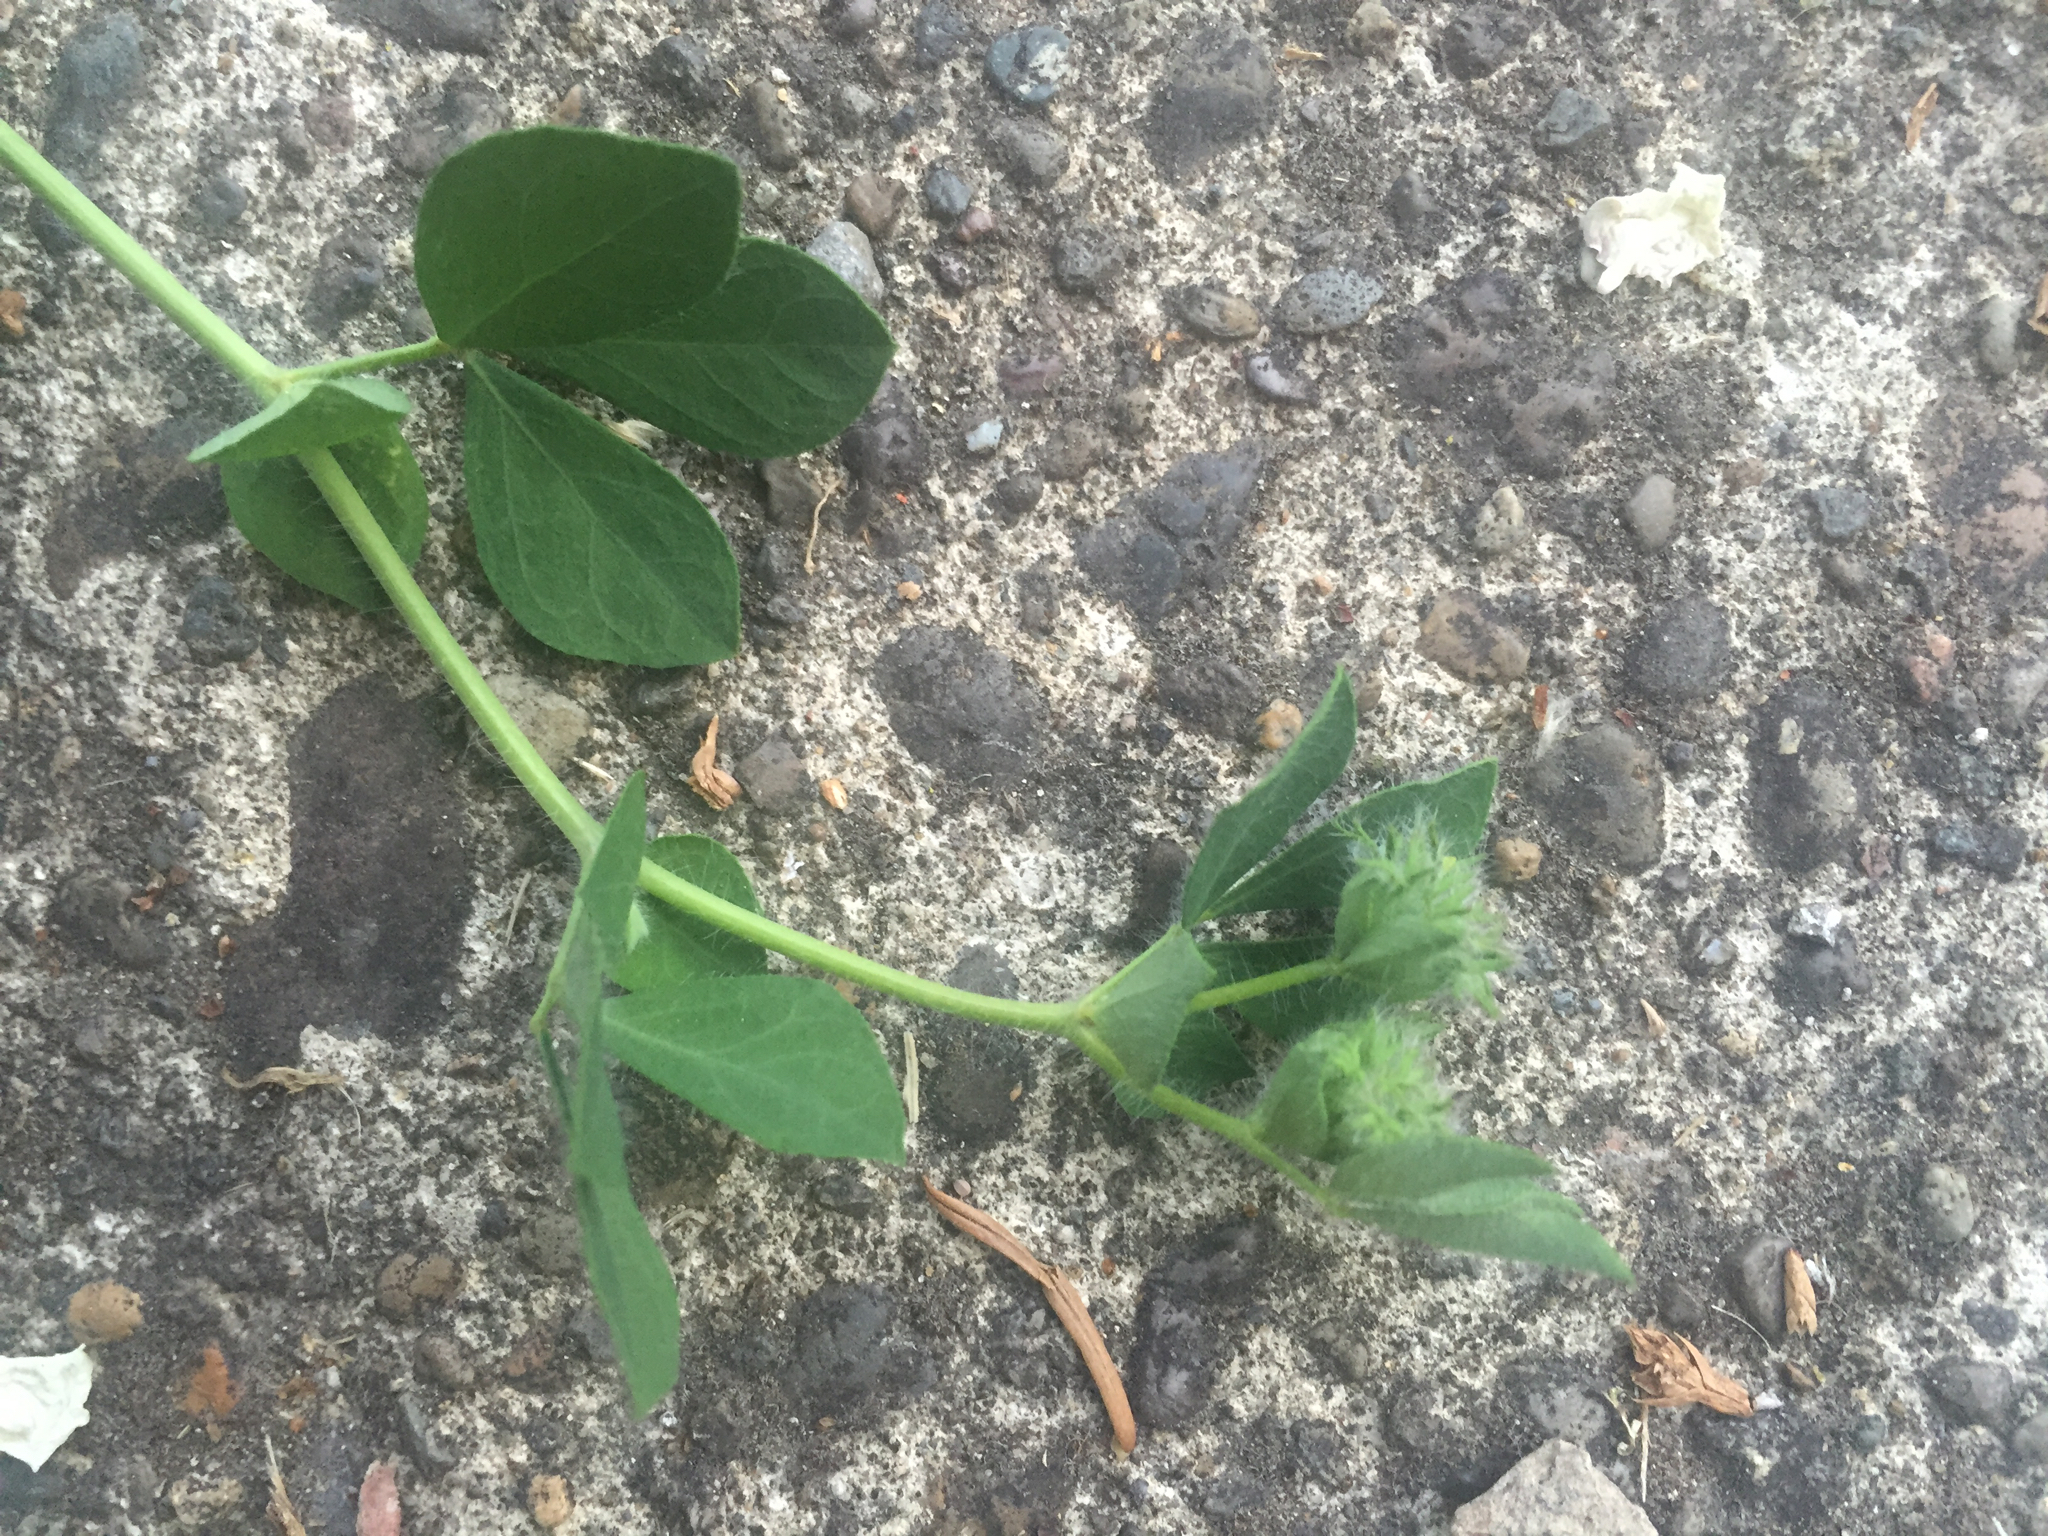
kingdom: Plantae
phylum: Tracheophyta
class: Magnoliopsida
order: Fabales
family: Fabaceae
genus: Lotus
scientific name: Lotus corniculatus
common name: Common bird's-foot-trefoil
